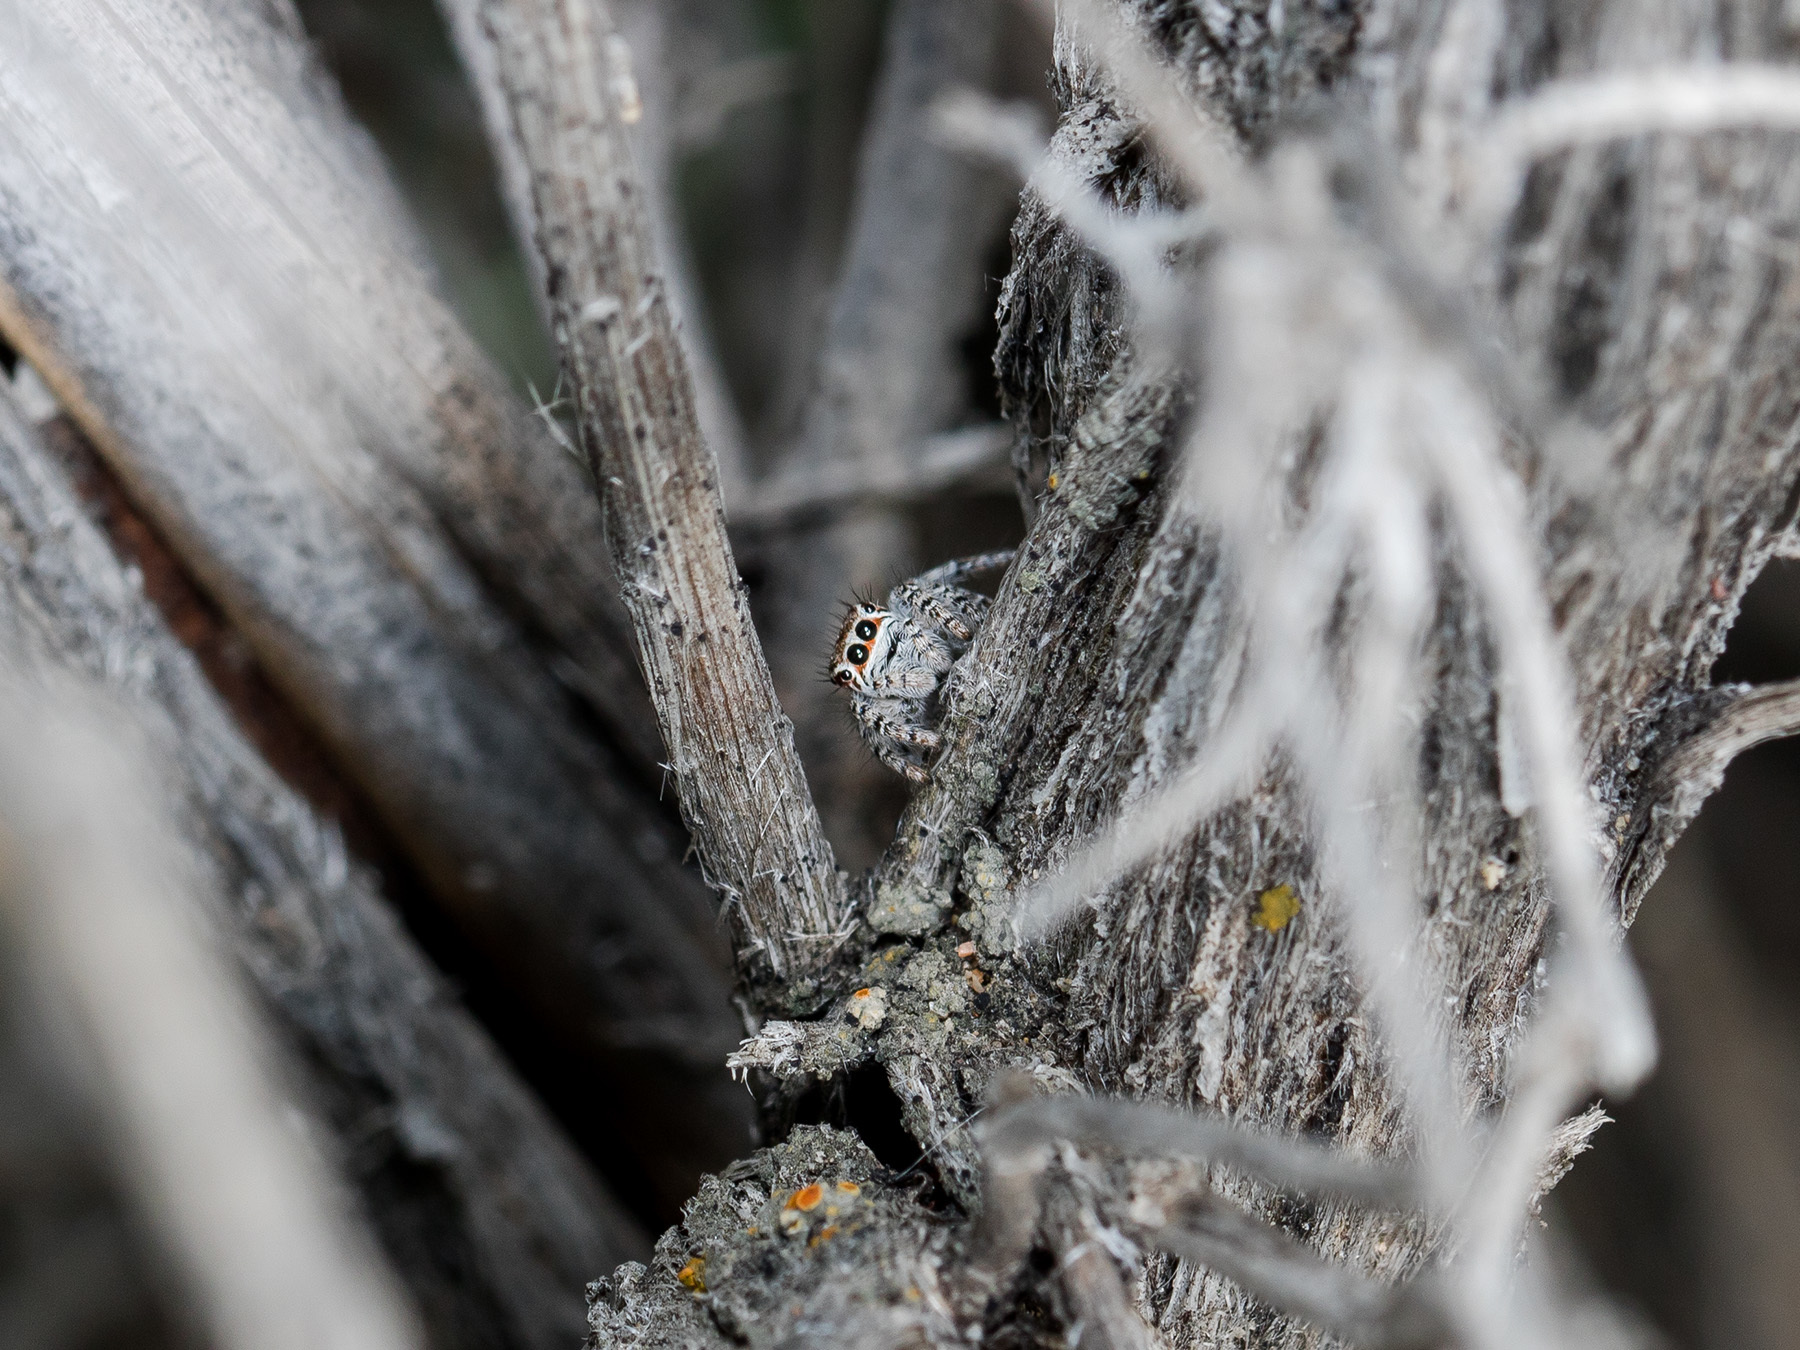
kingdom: Animalia
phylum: Arthropoda
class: Arachnida
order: Araneae
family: Salticidae
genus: Mogrus
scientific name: Mogrus antoninus
